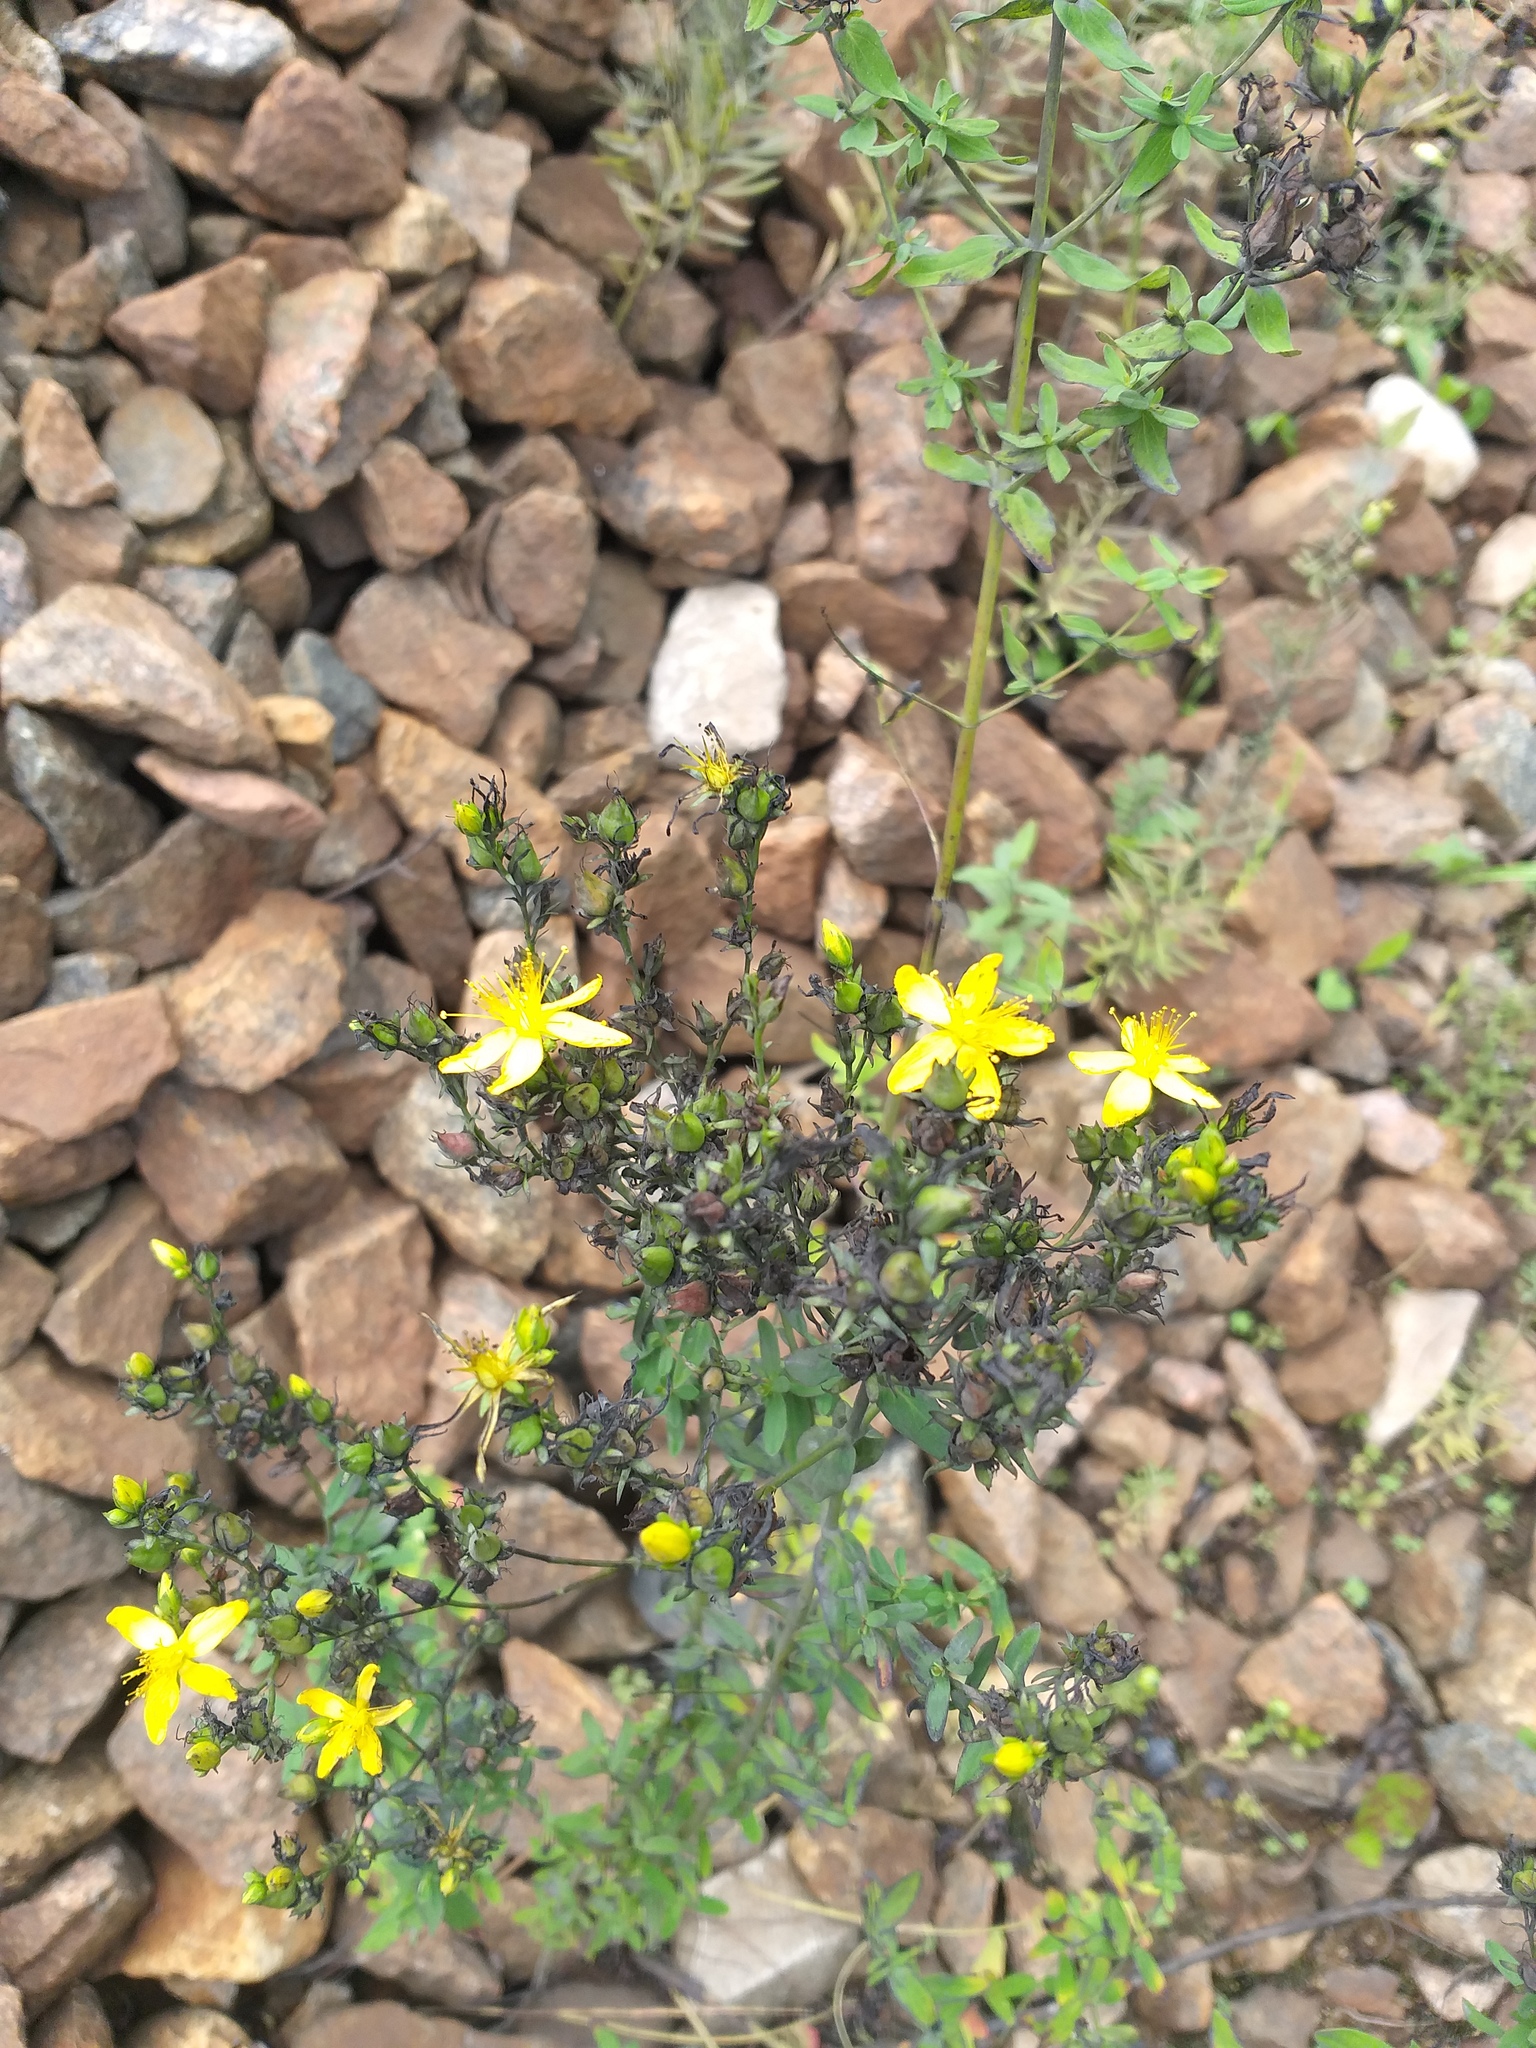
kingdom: Plantae
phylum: Tracheophyta
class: Magnoliopsida
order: Malpighiales
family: Hypericaceae
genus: Hypericum
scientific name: Hypericum perforatum
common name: Common st. johnswort
